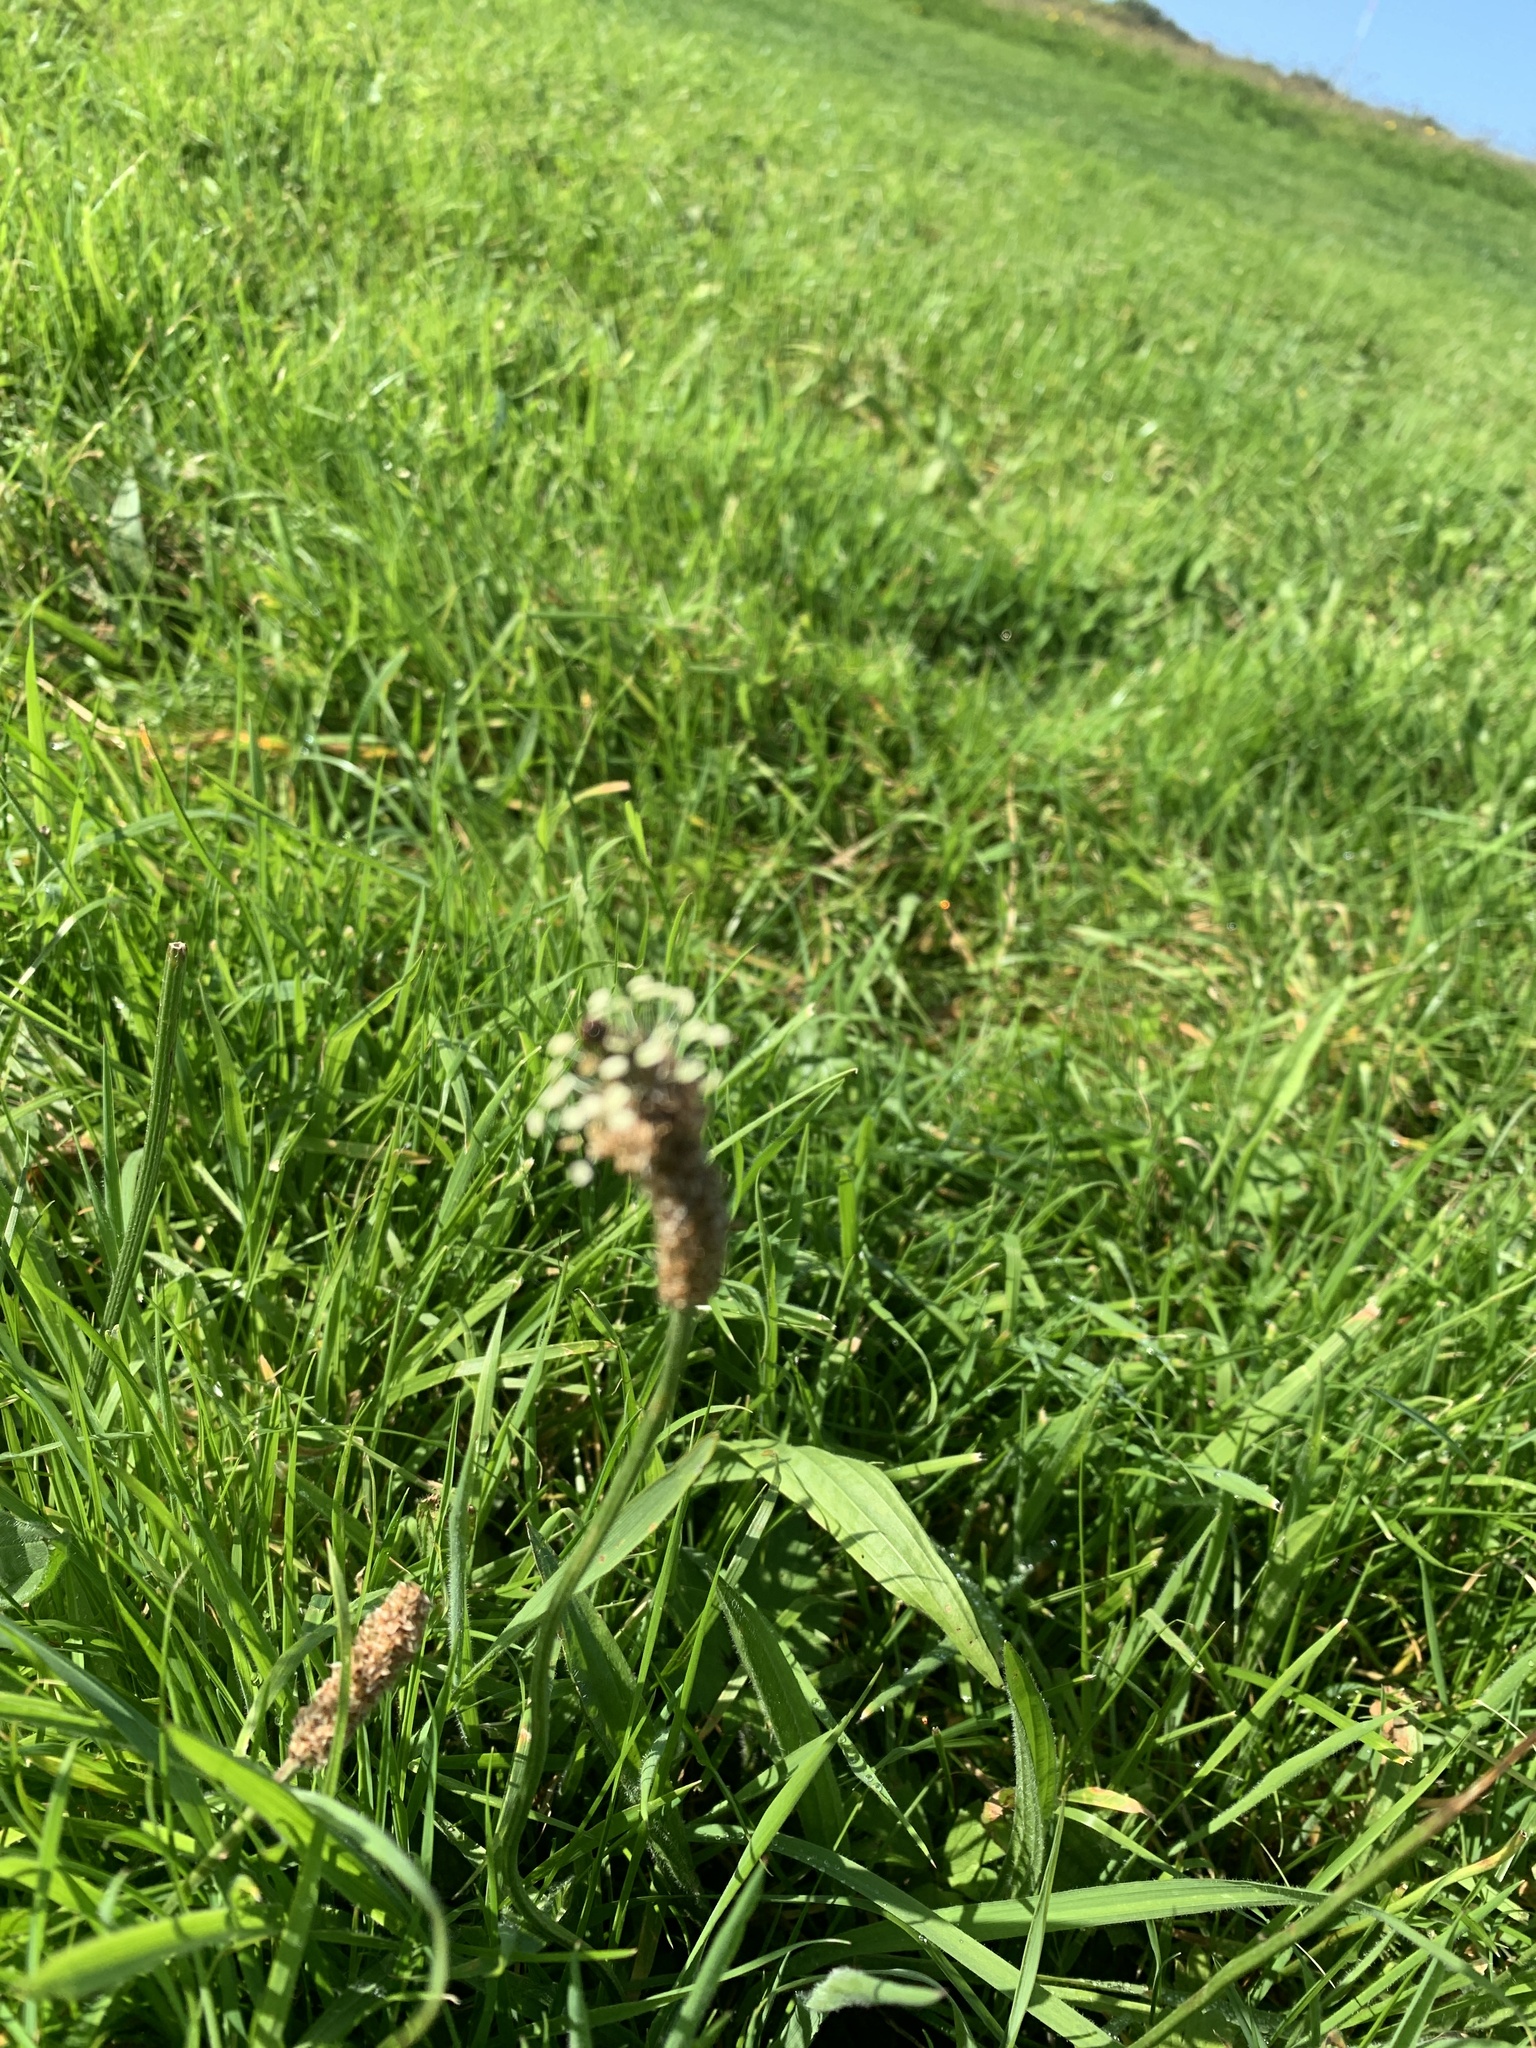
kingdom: Plantae
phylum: Tracheophyta
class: Magnoliopsida
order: Lamiales
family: Plantaginaceae
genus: Plantago
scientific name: Plantago lanceolata
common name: Ribwort plantain
